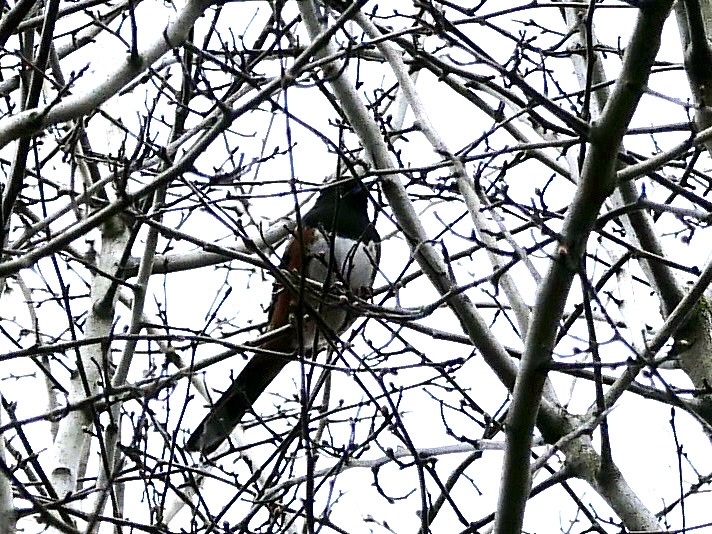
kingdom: Animalia
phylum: Chordata
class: Aves
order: Passeriformes
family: Passerellidae
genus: Pipilo
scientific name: Pipilo maculatus
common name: Spotted towhee
